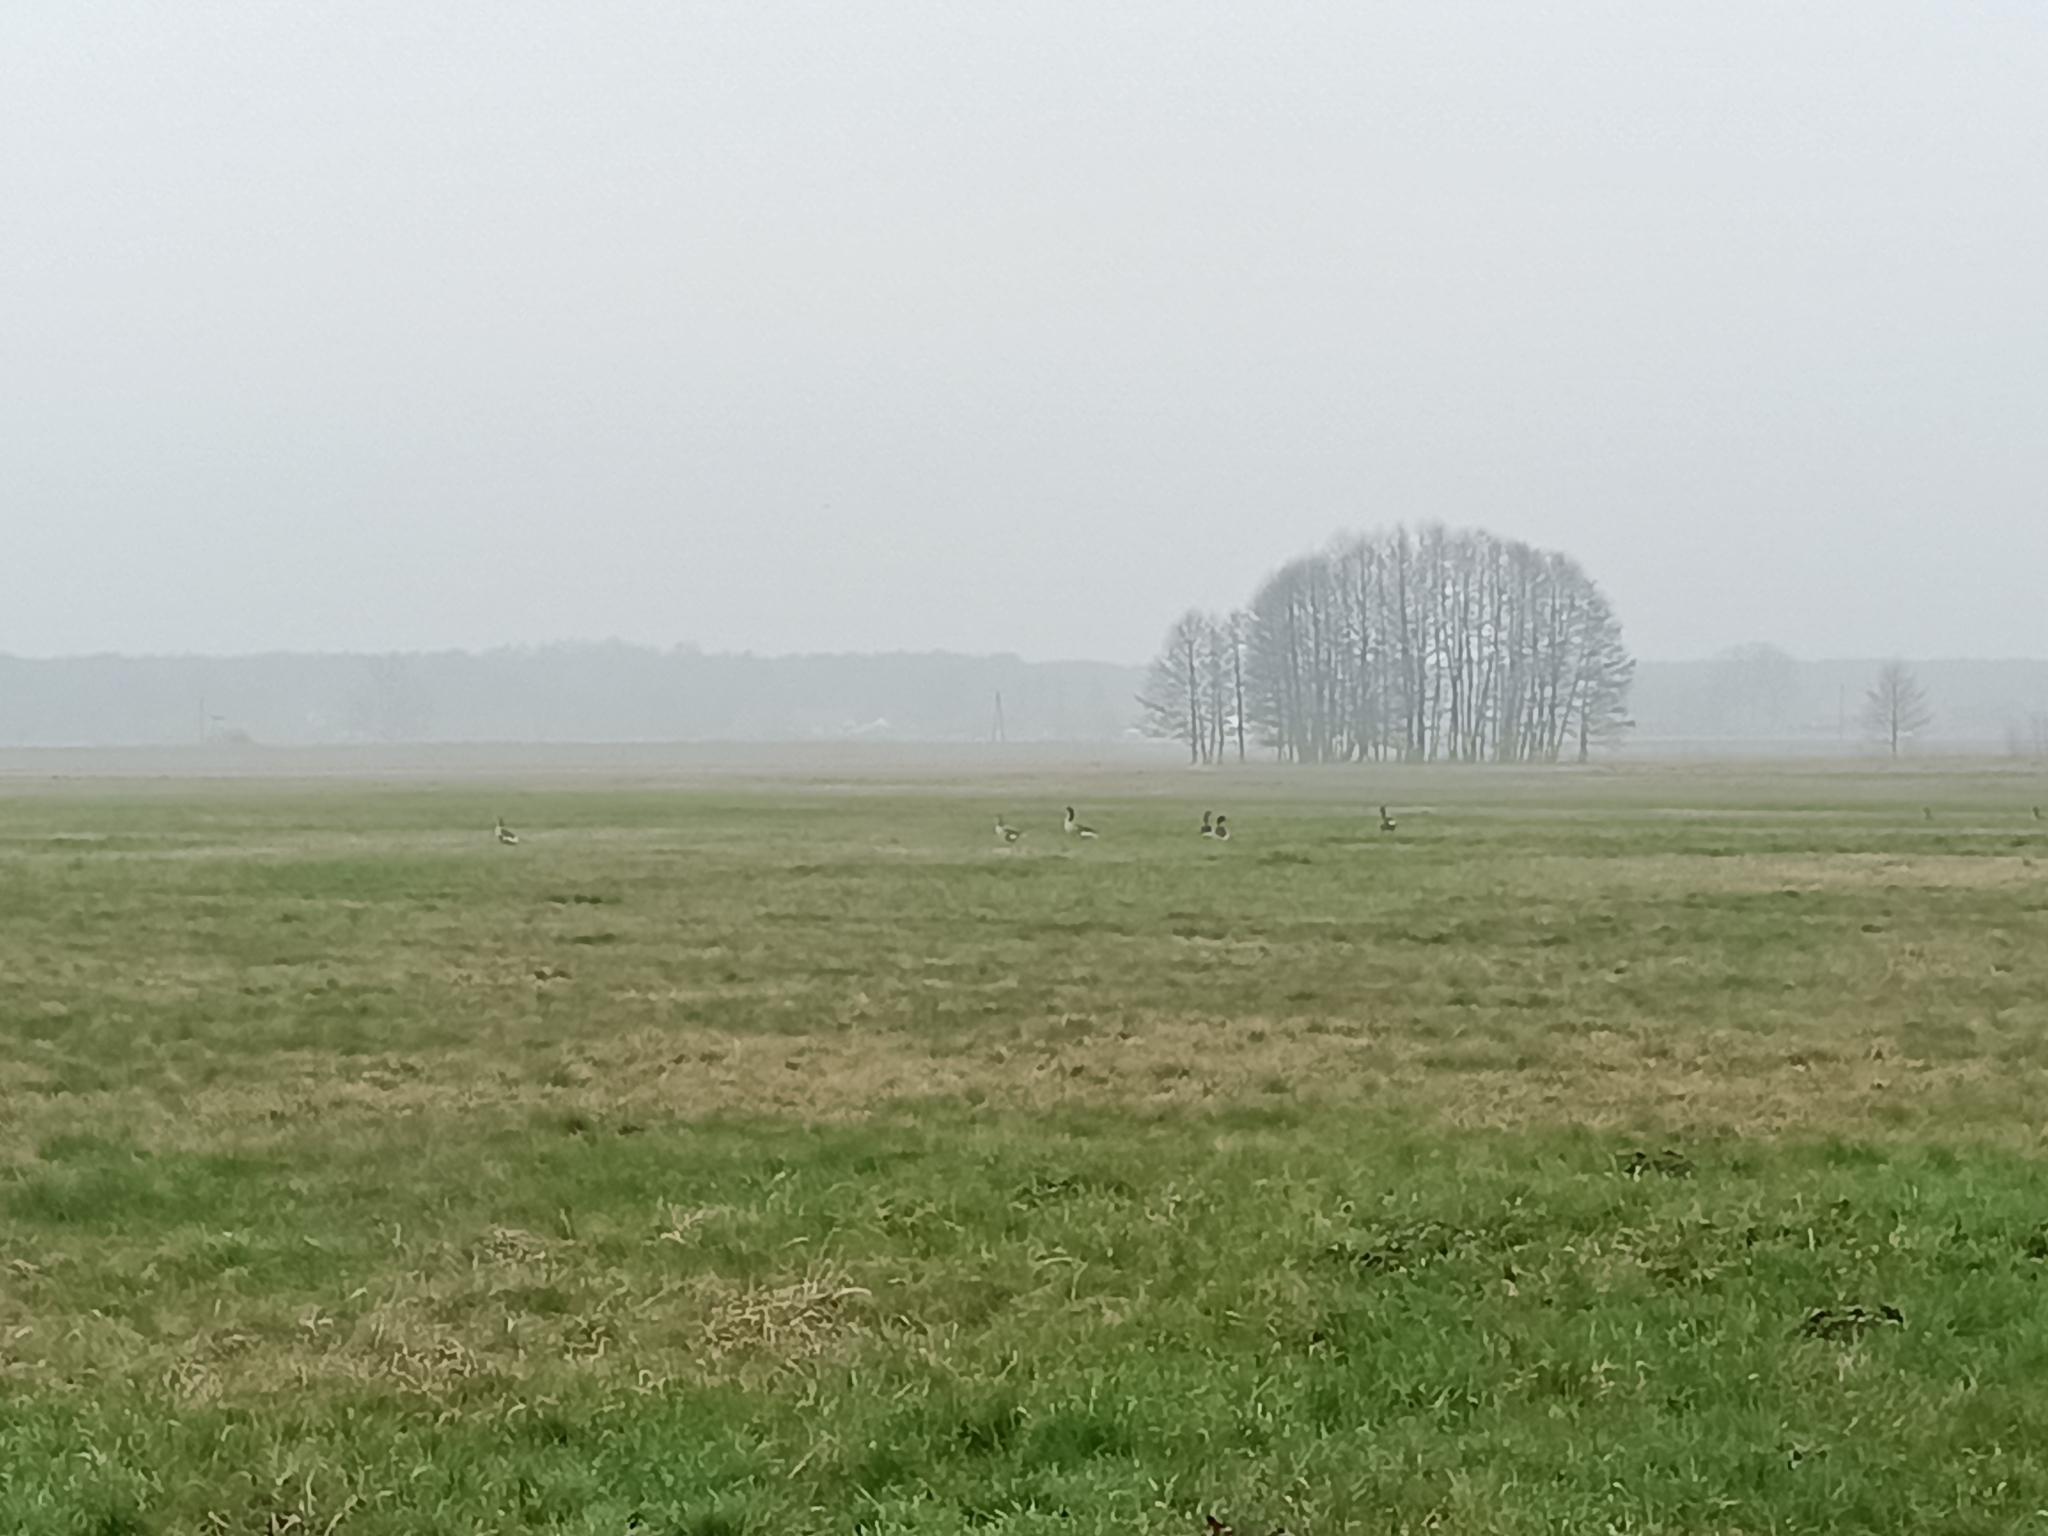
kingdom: Animalia
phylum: Chordata
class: Aves
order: Anseriformes
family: Anatidae
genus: Anser
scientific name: Anser anser
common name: Greylag goose
